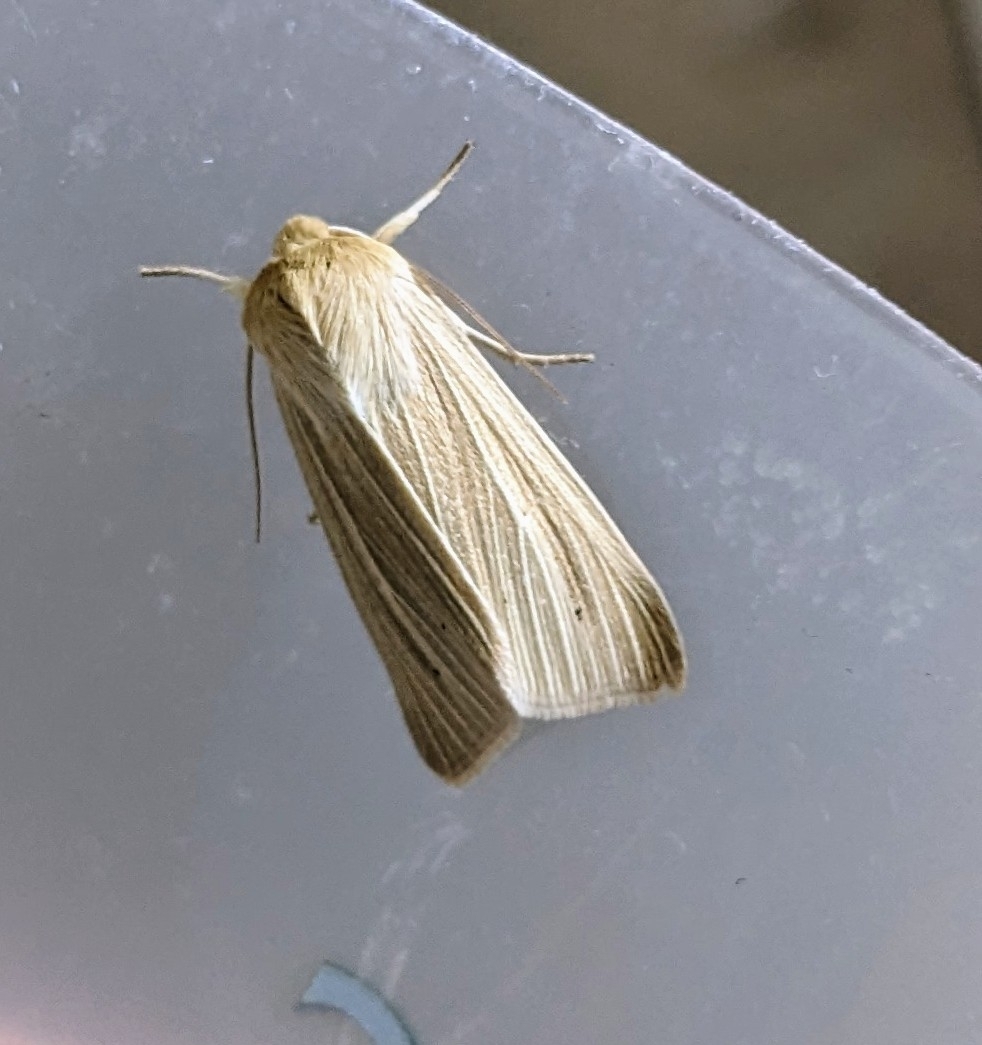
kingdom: Animalia
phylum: Arthropoda
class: Insecta
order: Lepidoptera
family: Noctuidae
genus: Mythimna
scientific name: Mythimna pallens
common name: Common wainscot
